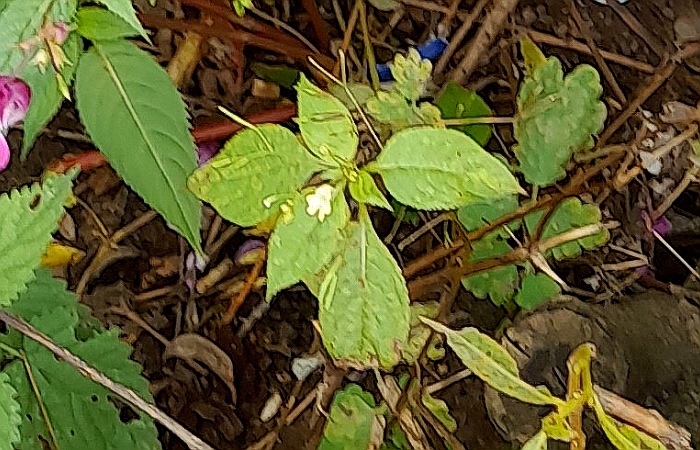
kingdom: Plantae
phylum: Tracheophyta
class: Magnoliopsida
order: Ericales
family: Balsaminaceae
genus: Impatiens
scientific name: Impatiens parviflora
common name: Small balsam
